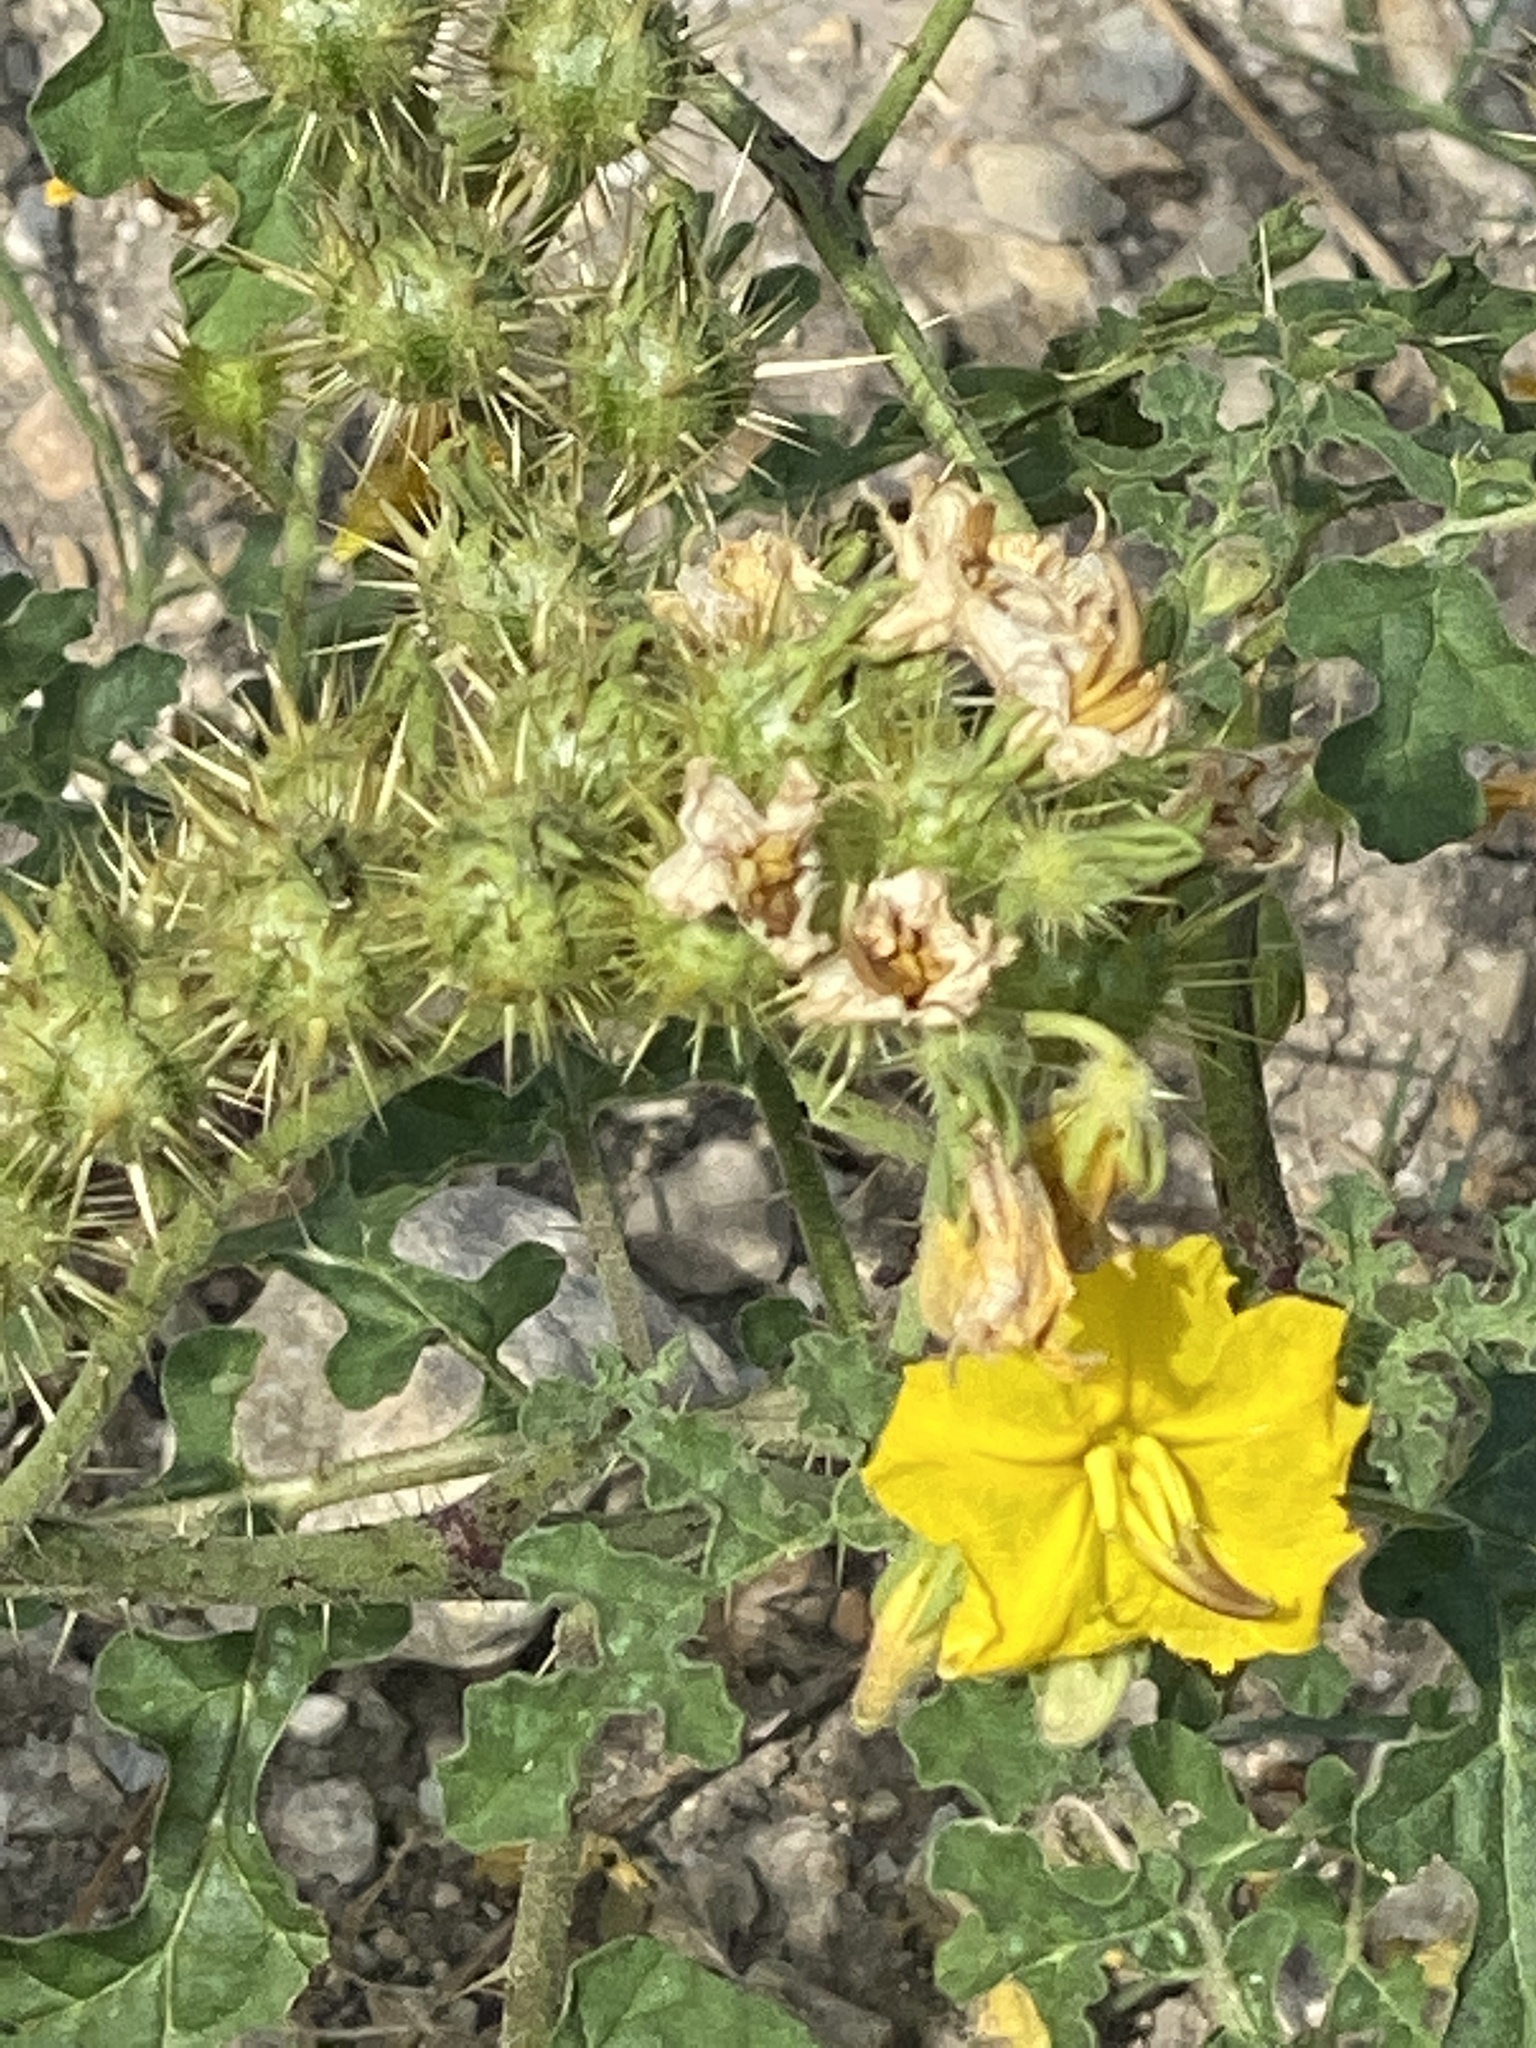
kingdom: Plantae
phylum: Tracheophyta
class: Magnoliopsida
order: Solanales
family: Solanaceae
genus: Solanum
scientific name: Solanum angustifolium
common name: Buffalobur nightshade
